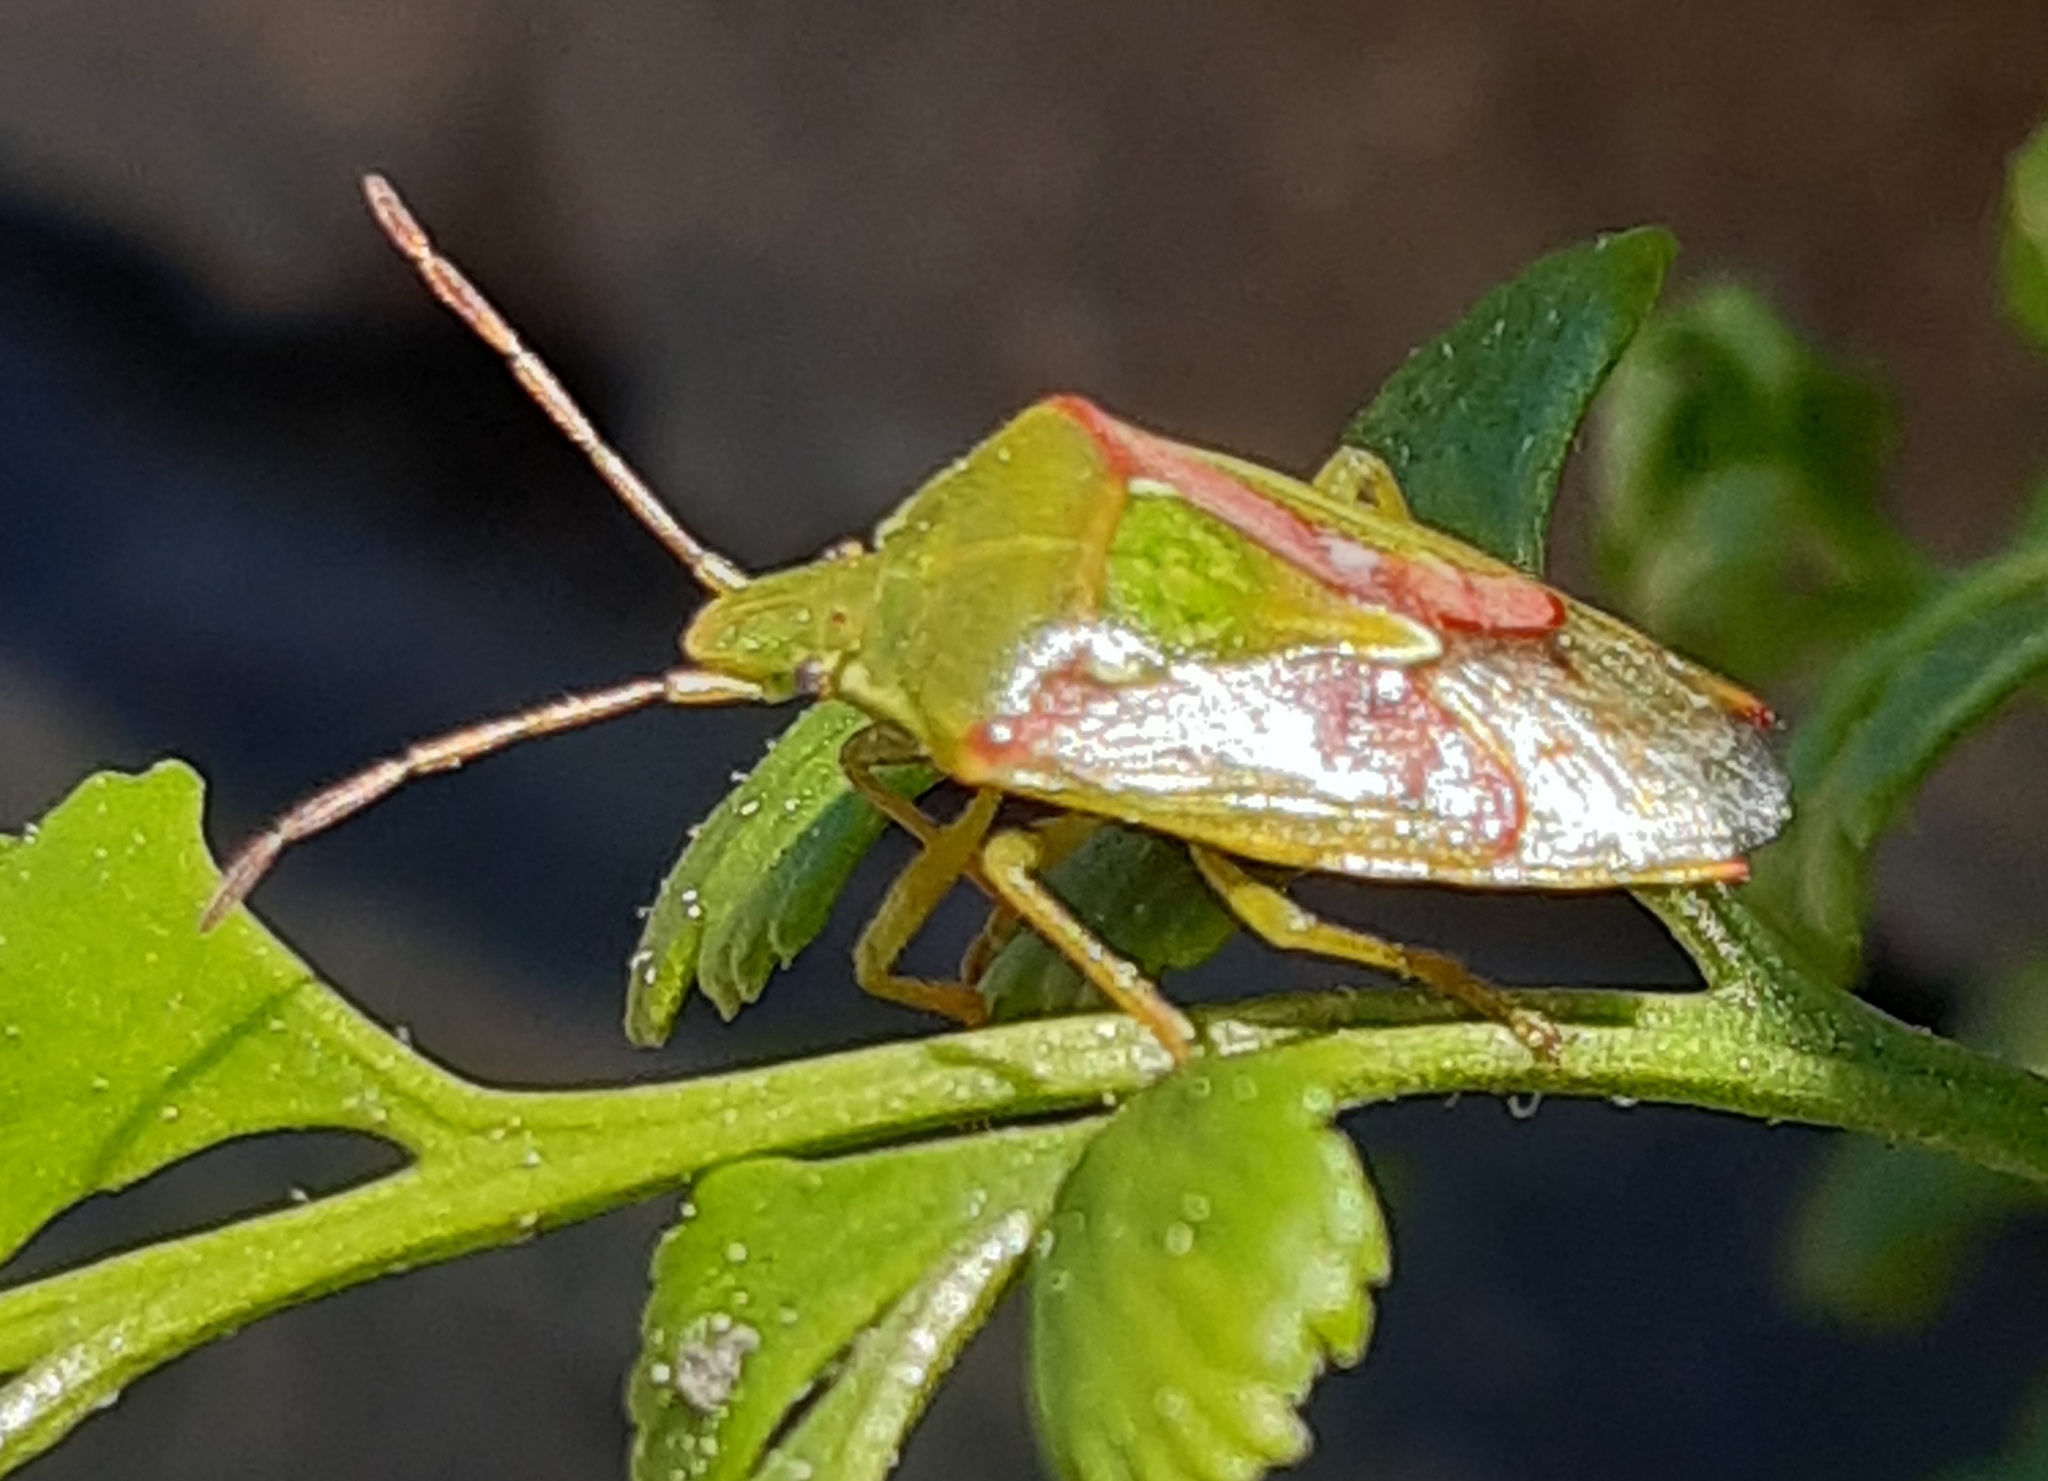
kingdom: Animalia
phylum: Arthropoda
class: Insecta
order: Hemiptera
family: Acanthosomatidae
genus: Cyphostethus
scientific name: Cyphostethus tristriatus
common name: Juniper shieldbug
